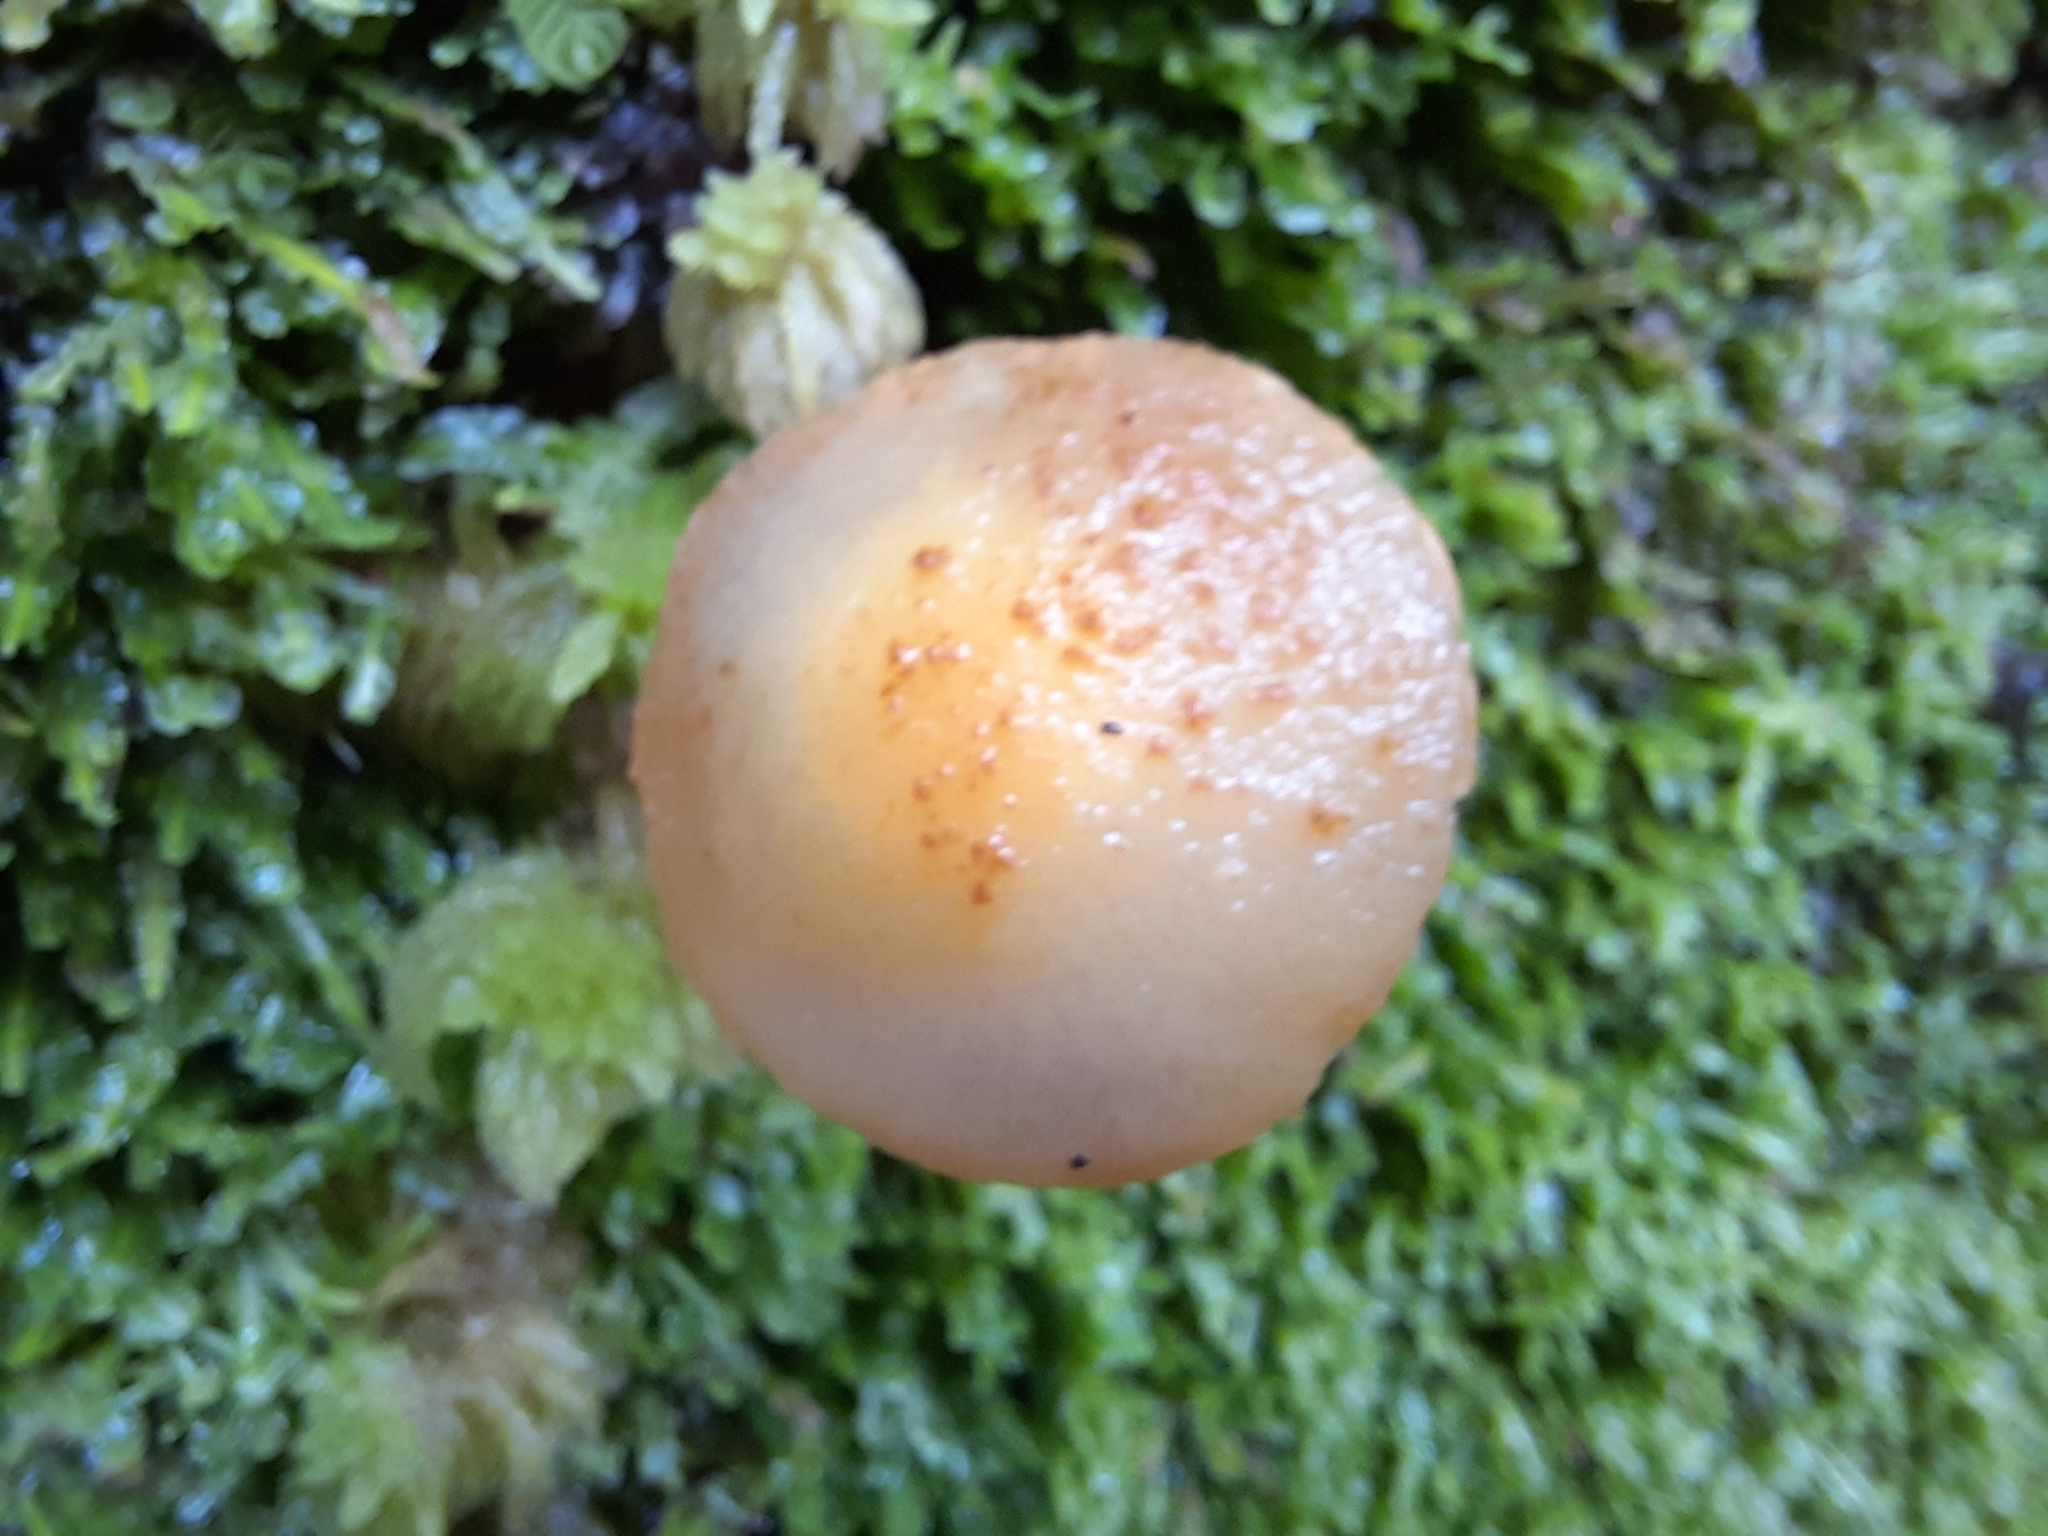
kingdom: Fungi
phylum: Basidiomycota
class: Agaricomycetes
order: Boletales
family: Boletaceae
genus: Austroboletus
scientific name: Austroboletus lacunosus
